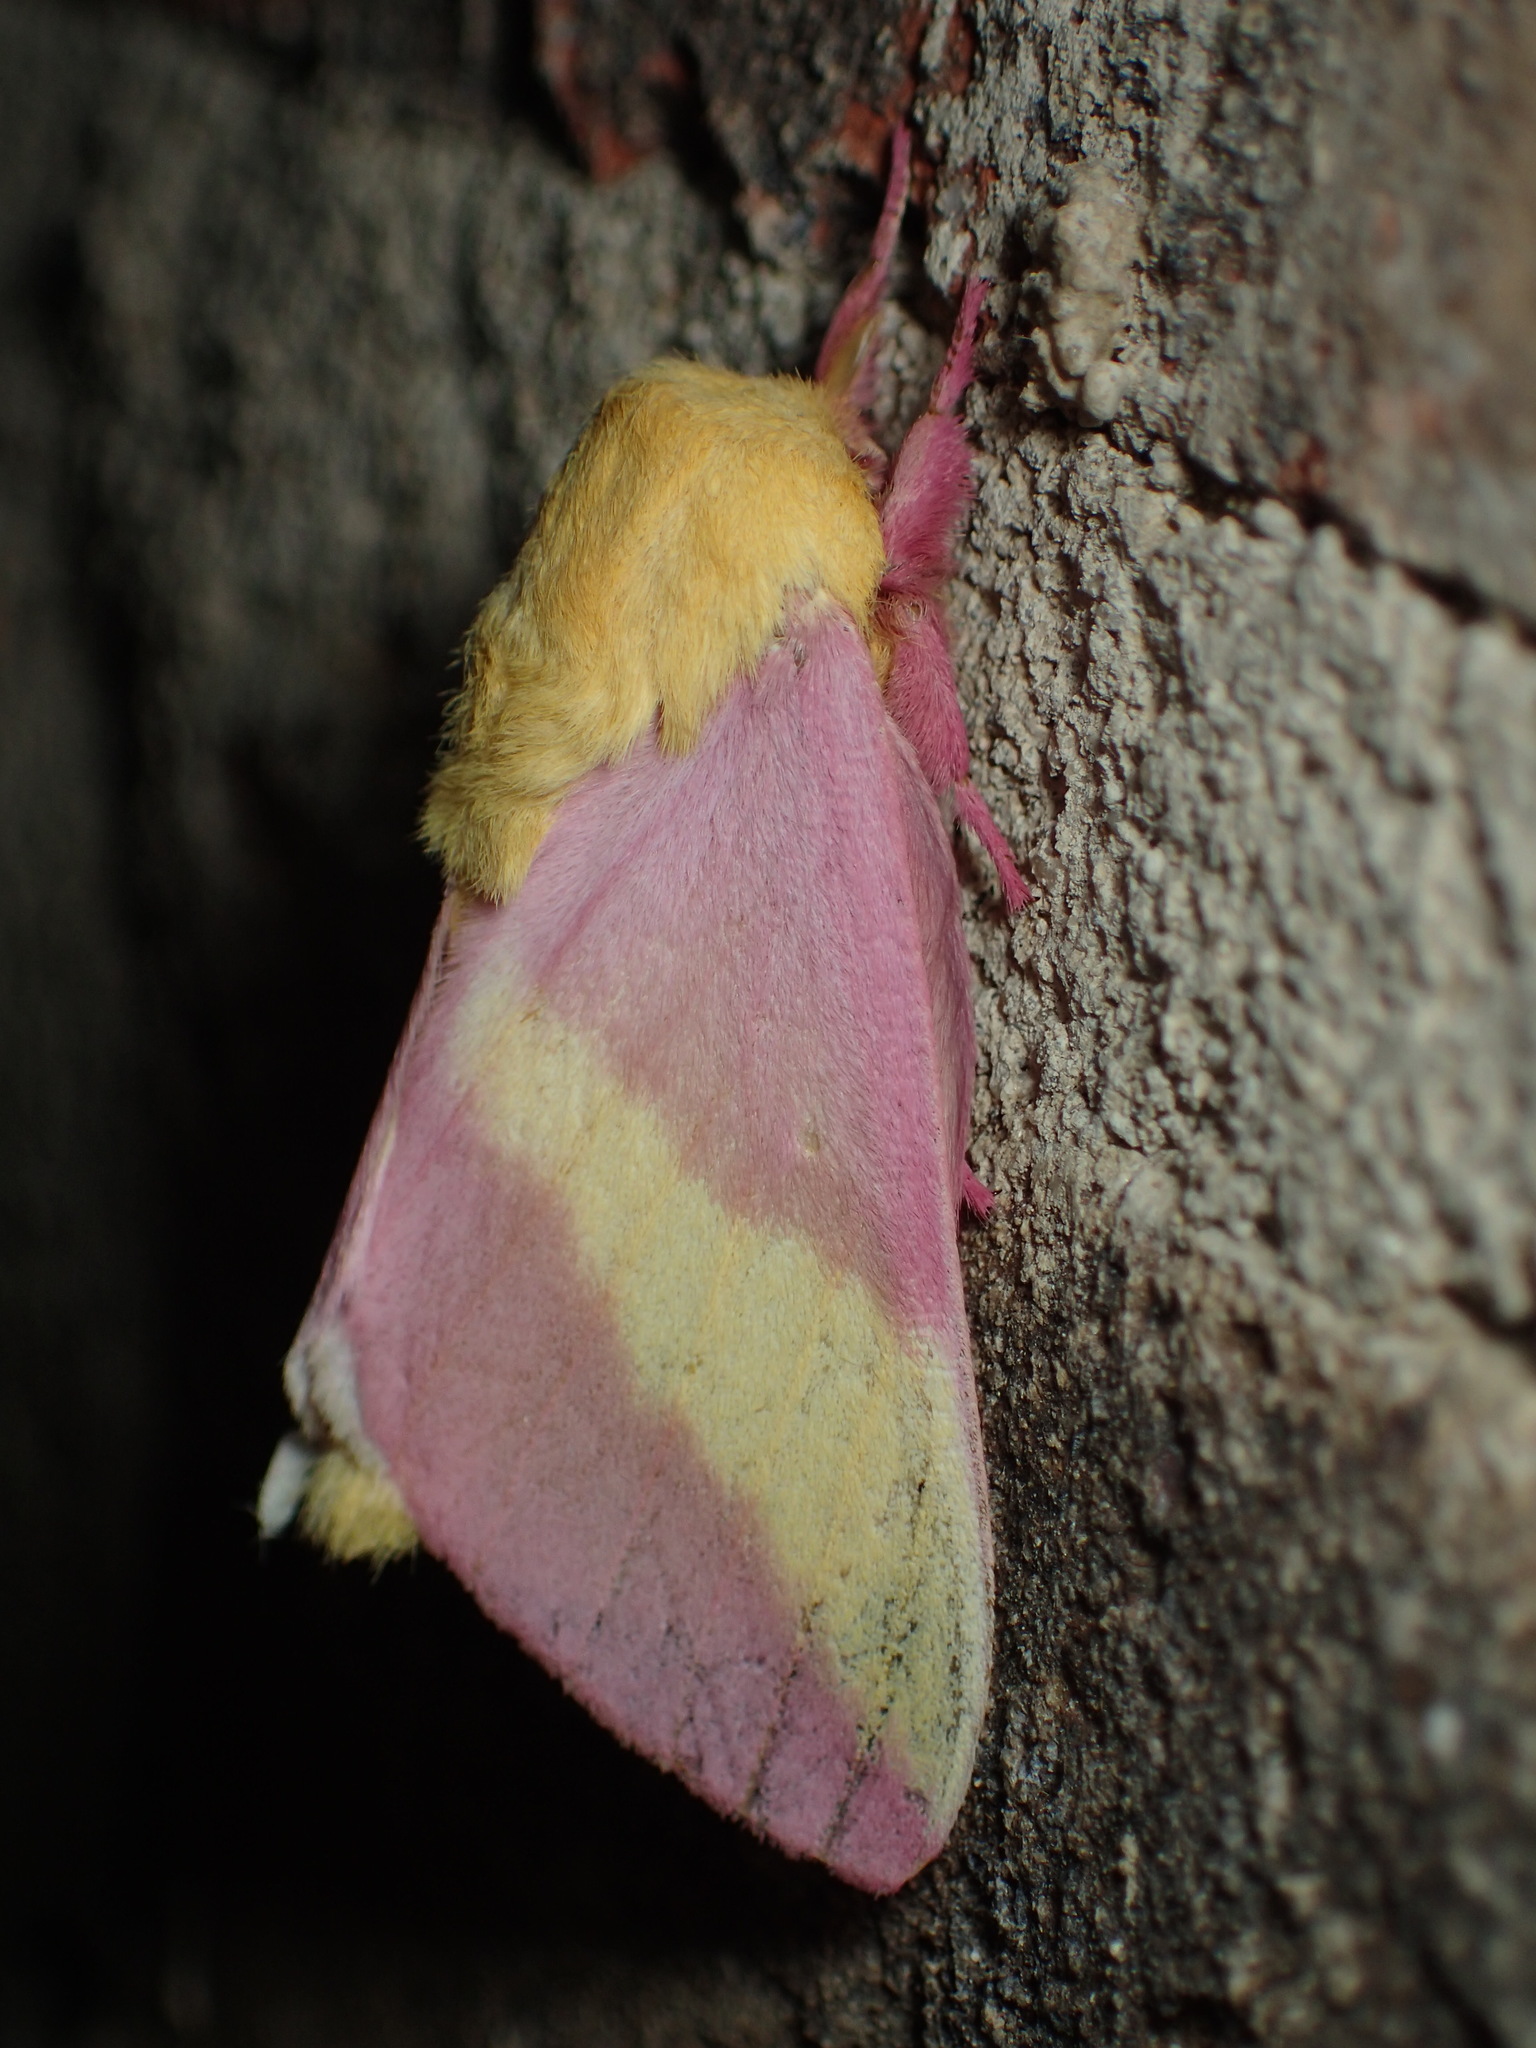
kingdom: Animalia
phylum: Arthropoda
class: Insecta
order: Lepidoptera
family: Saturniidae
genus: Dryocampa
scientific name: Dryocampa rubicunda
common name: Rosy maple moth
